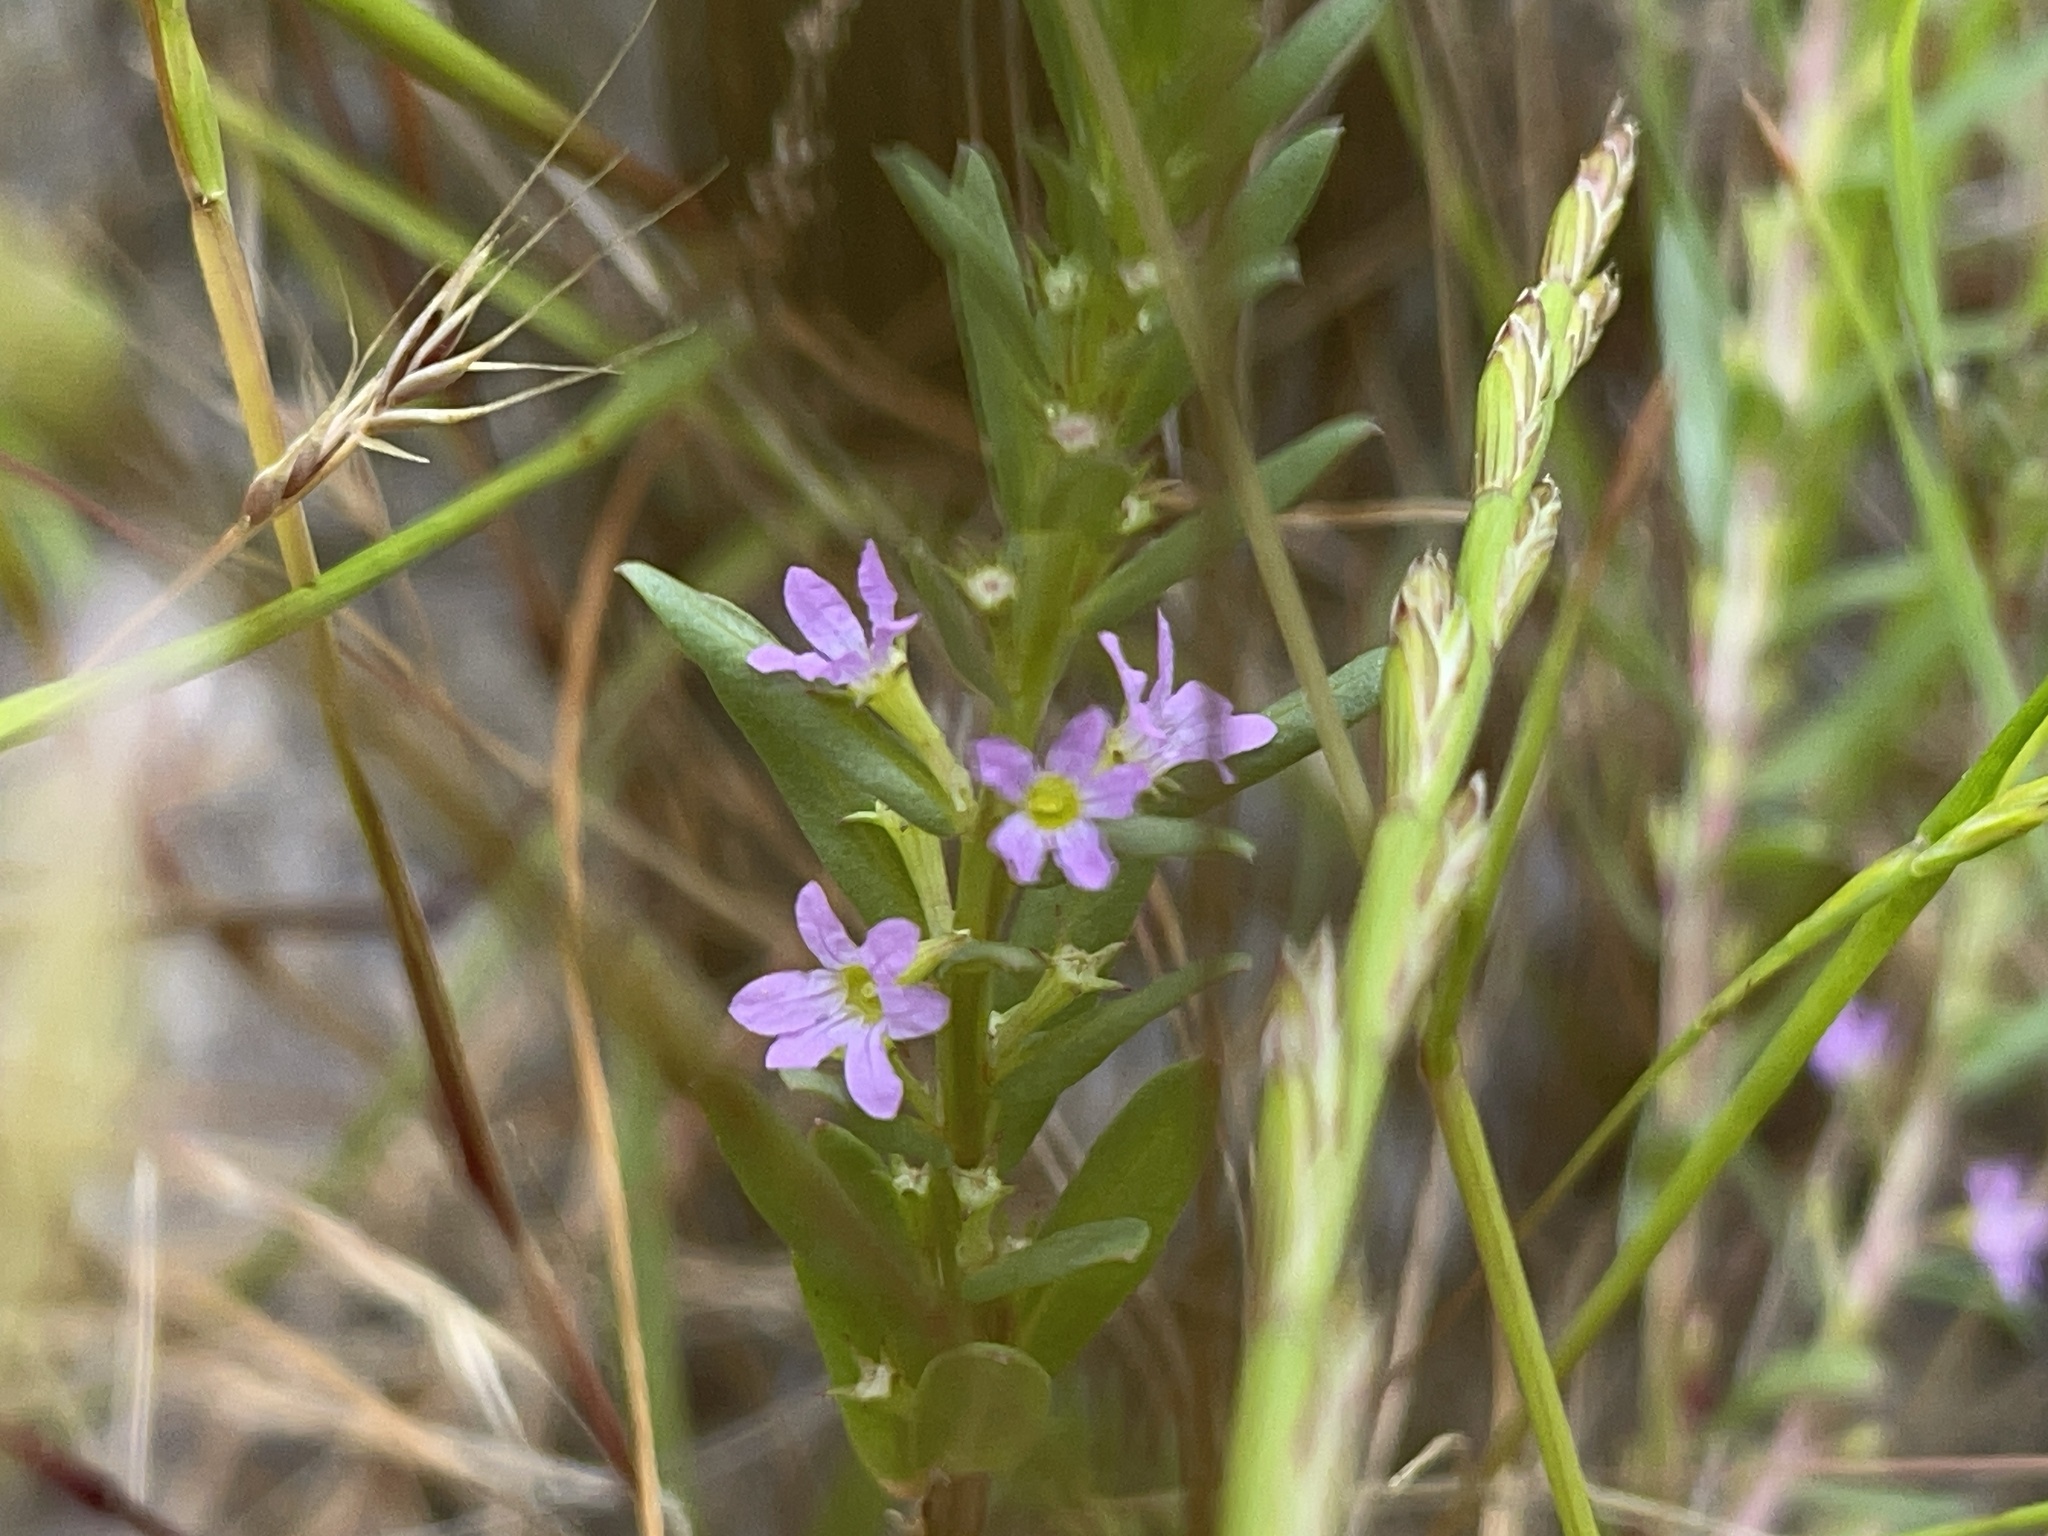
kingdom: Plantae
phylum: Tracheophyta
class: Magnoliopsida
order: Myrtales
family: Lythraceae
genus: Lythrum
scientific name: Lythrum hyssopifolia
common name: Grass-poly
